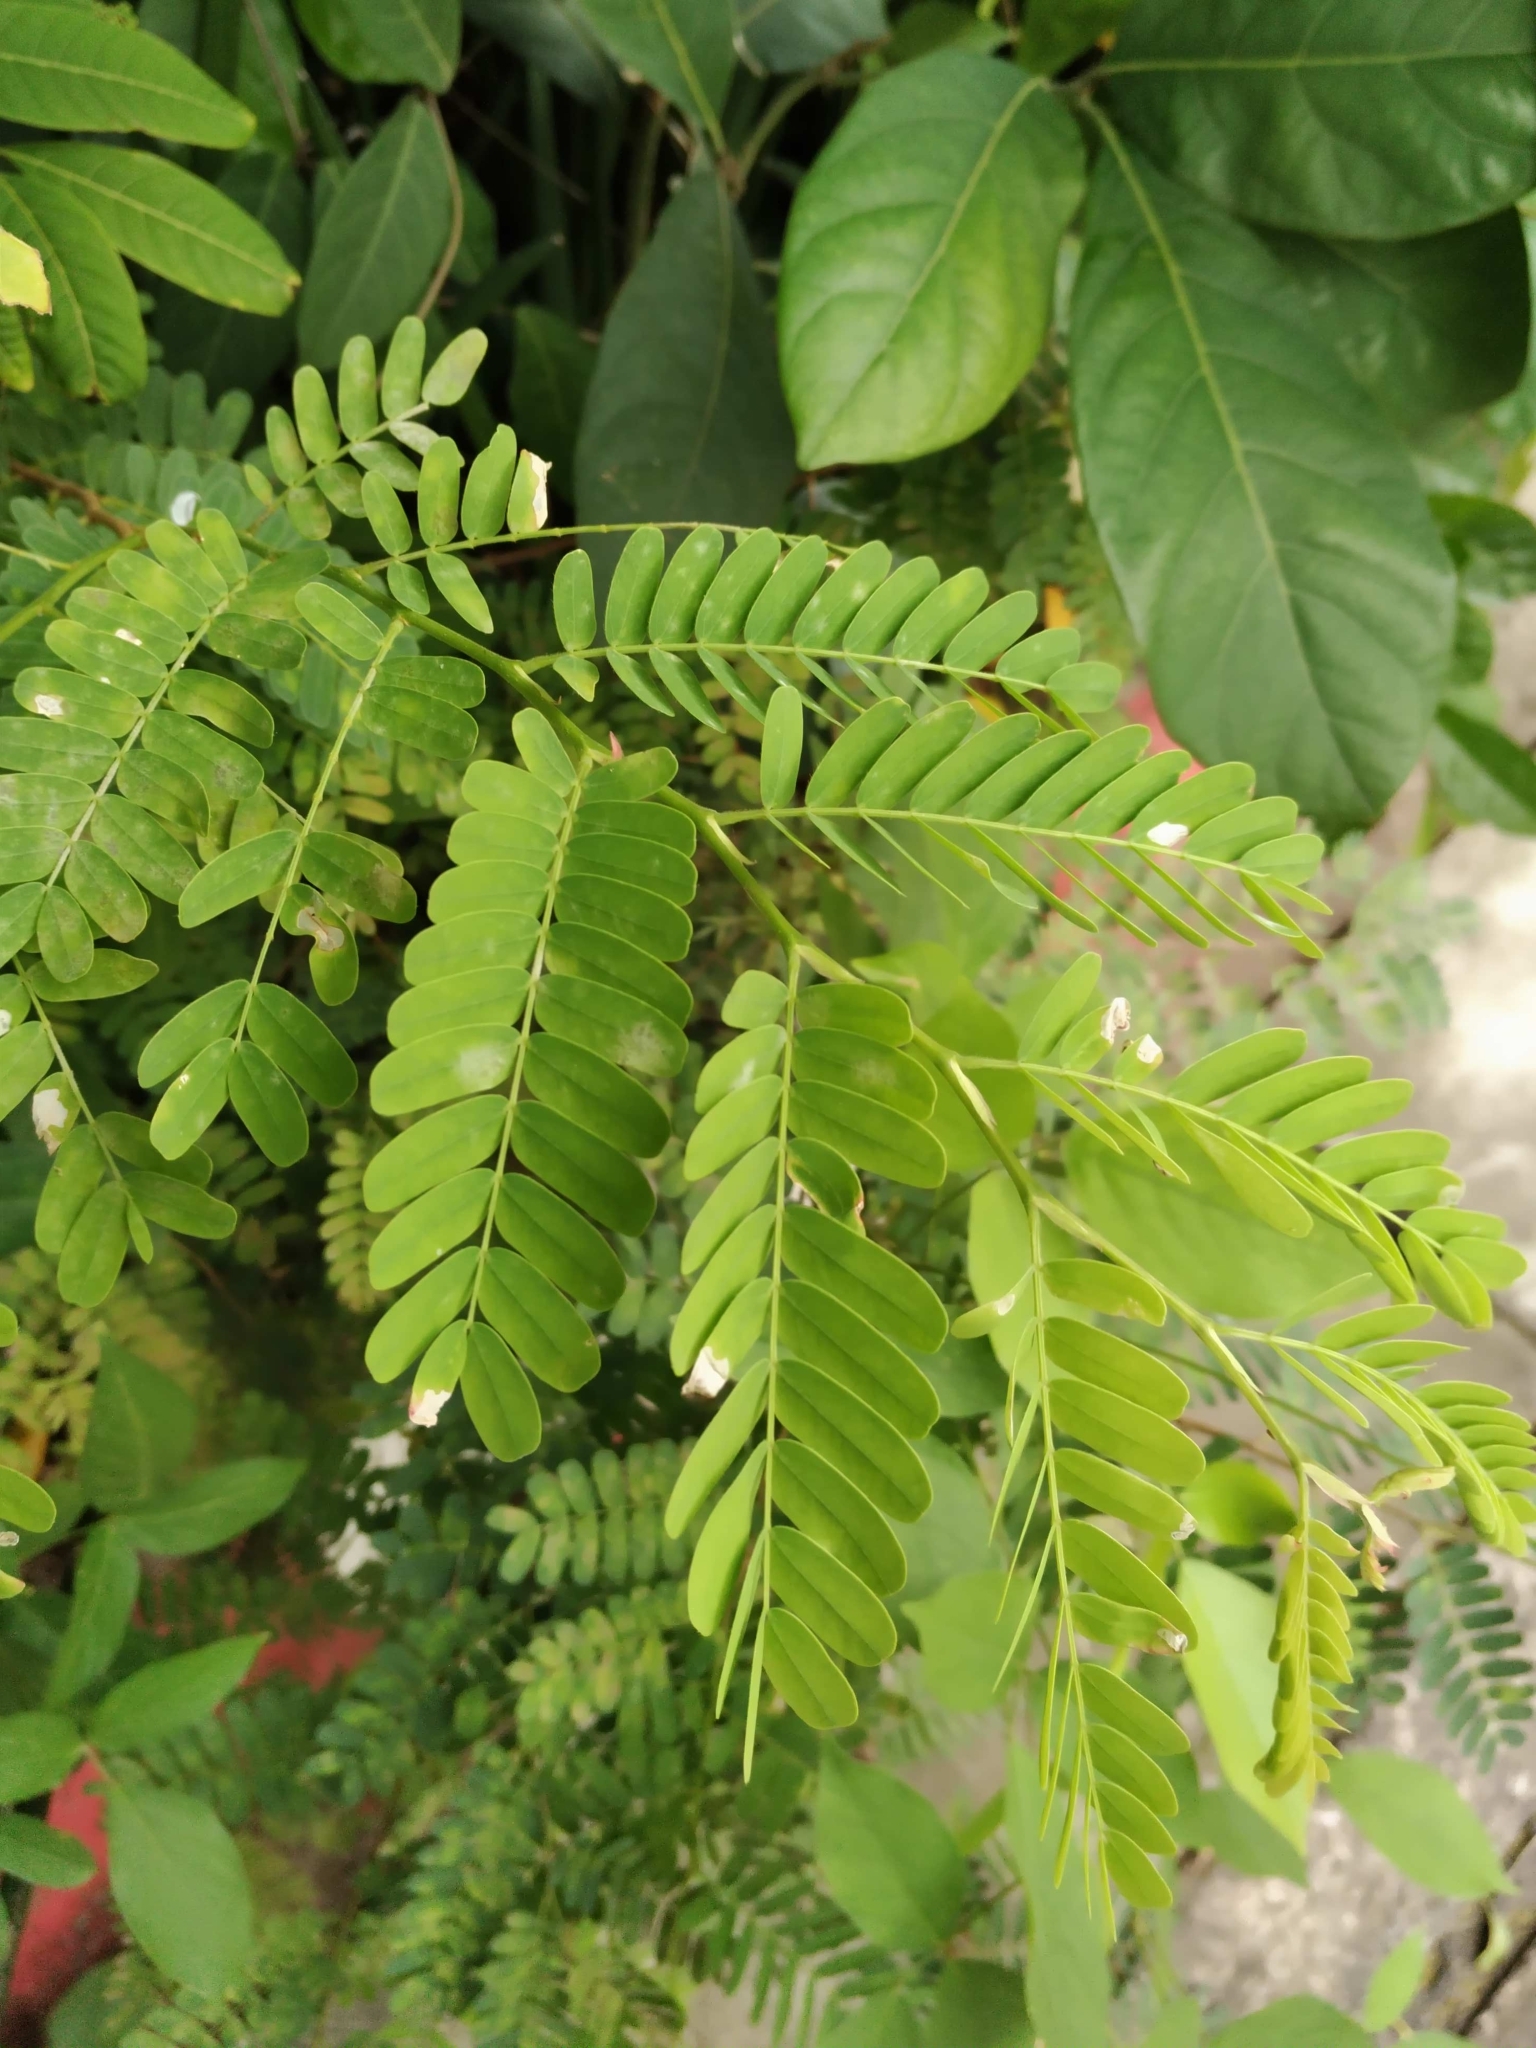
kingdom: Plantae
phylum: Tracheophyta
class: Magnoliopsida
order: Fabales
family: Fabaceae
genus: Tamarindus
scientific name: Tamarindus indica
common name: Tamarind
